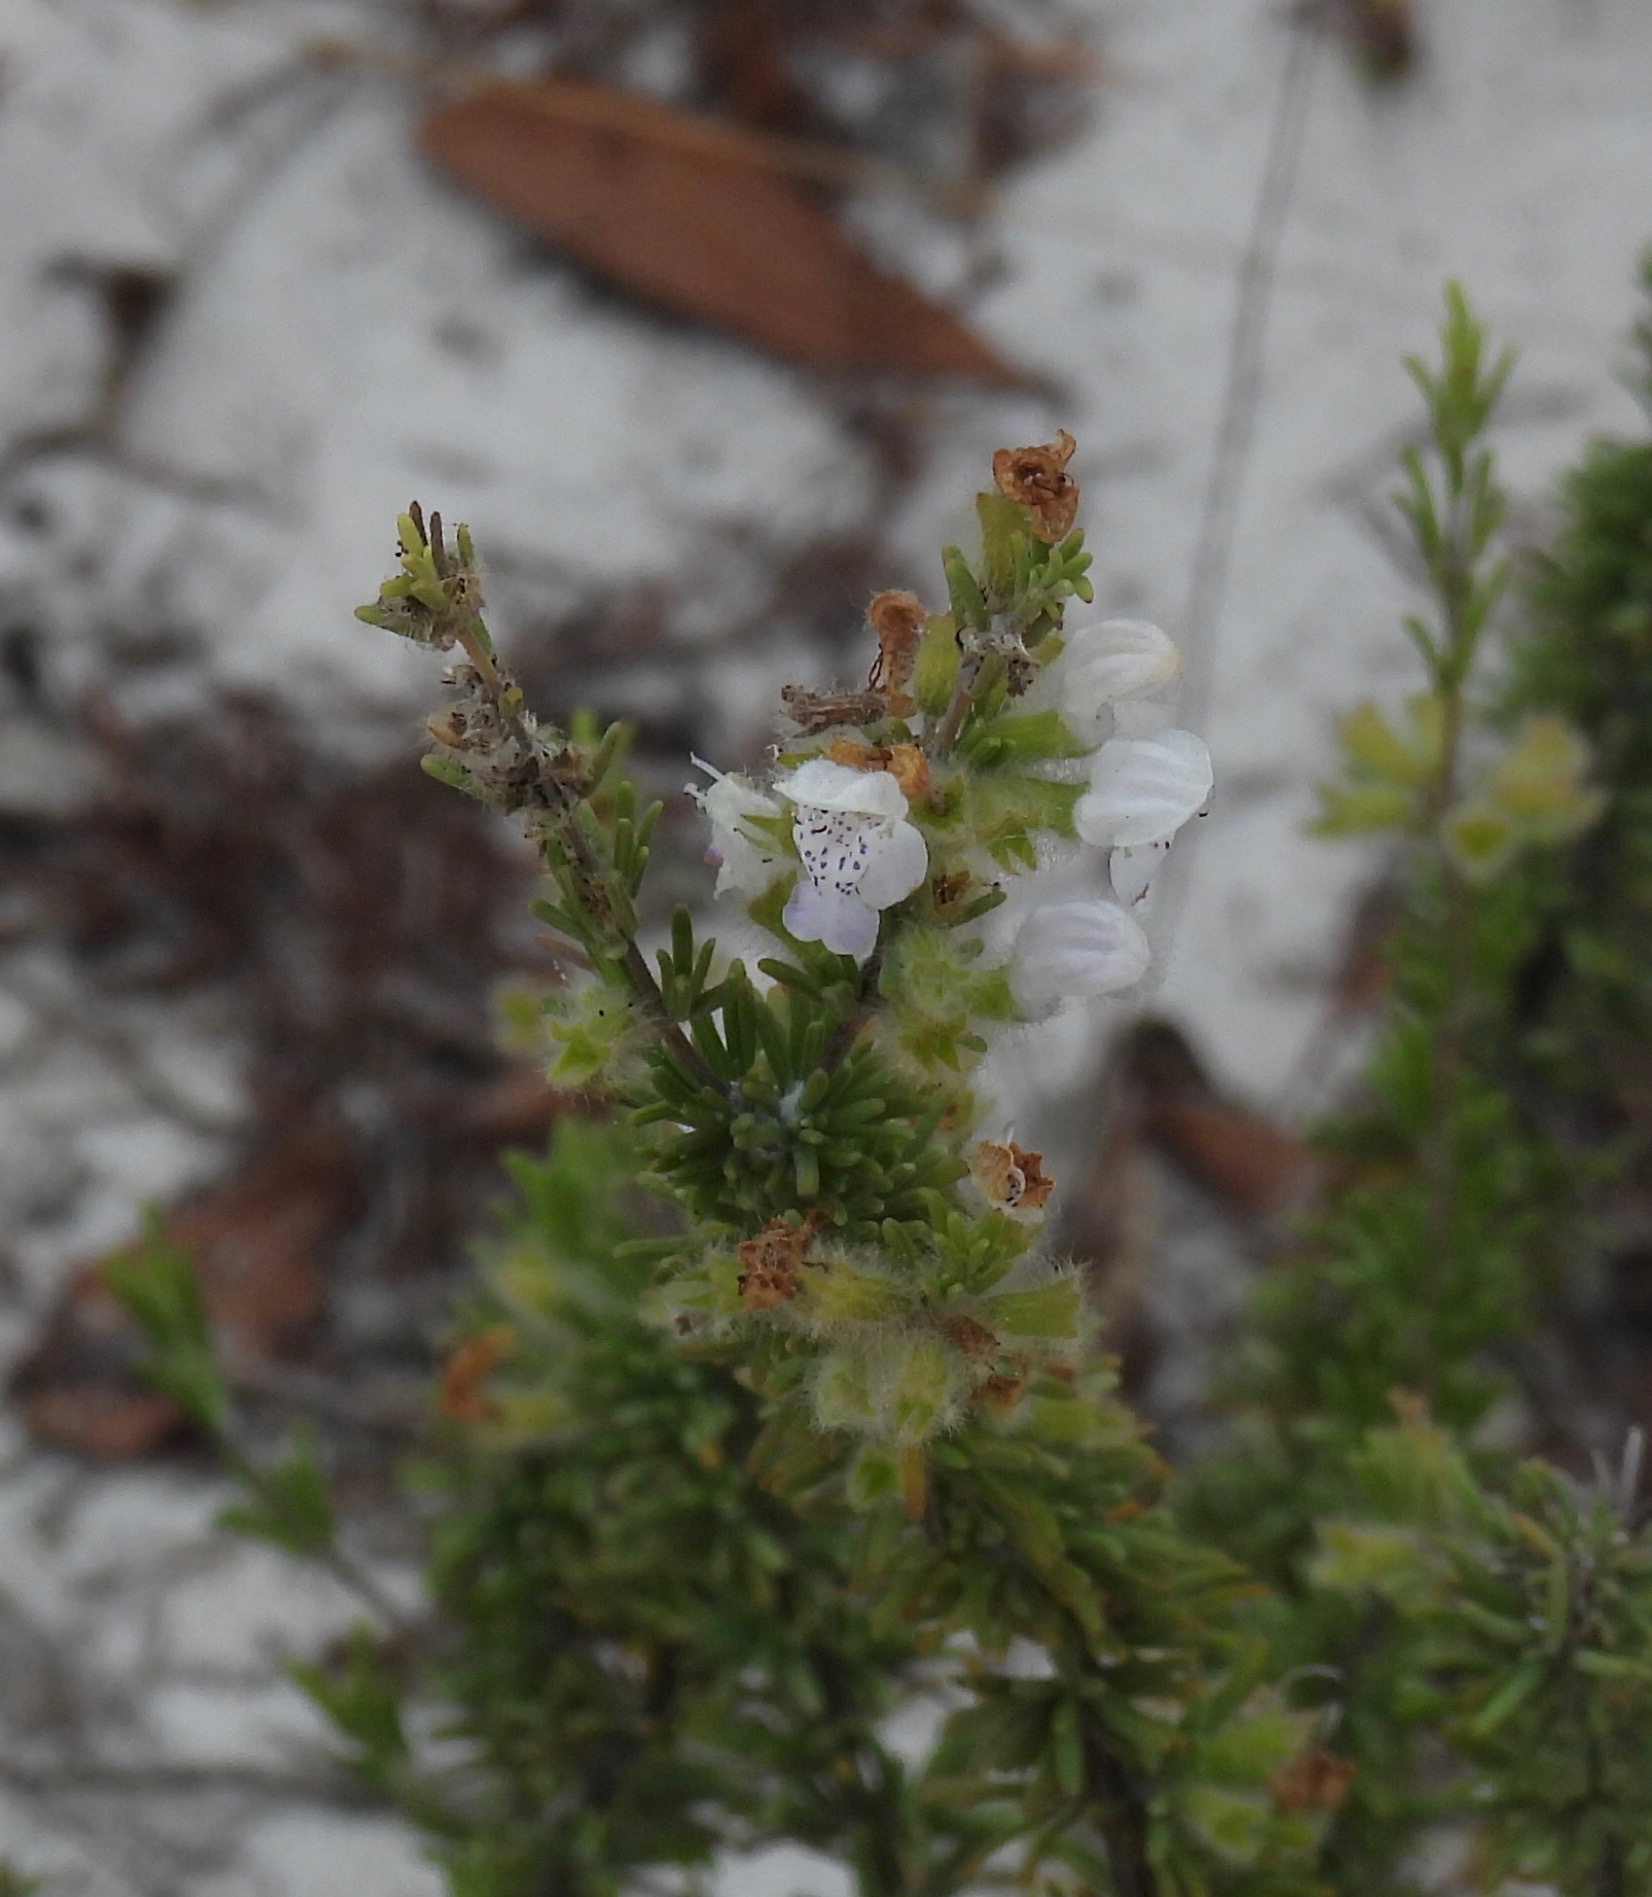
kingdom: Plantae
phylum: Tracheophyta
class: Magnoliopsida
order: Lamiales
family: Lamiaceae
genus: Conradina
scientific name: Conradina canescens
